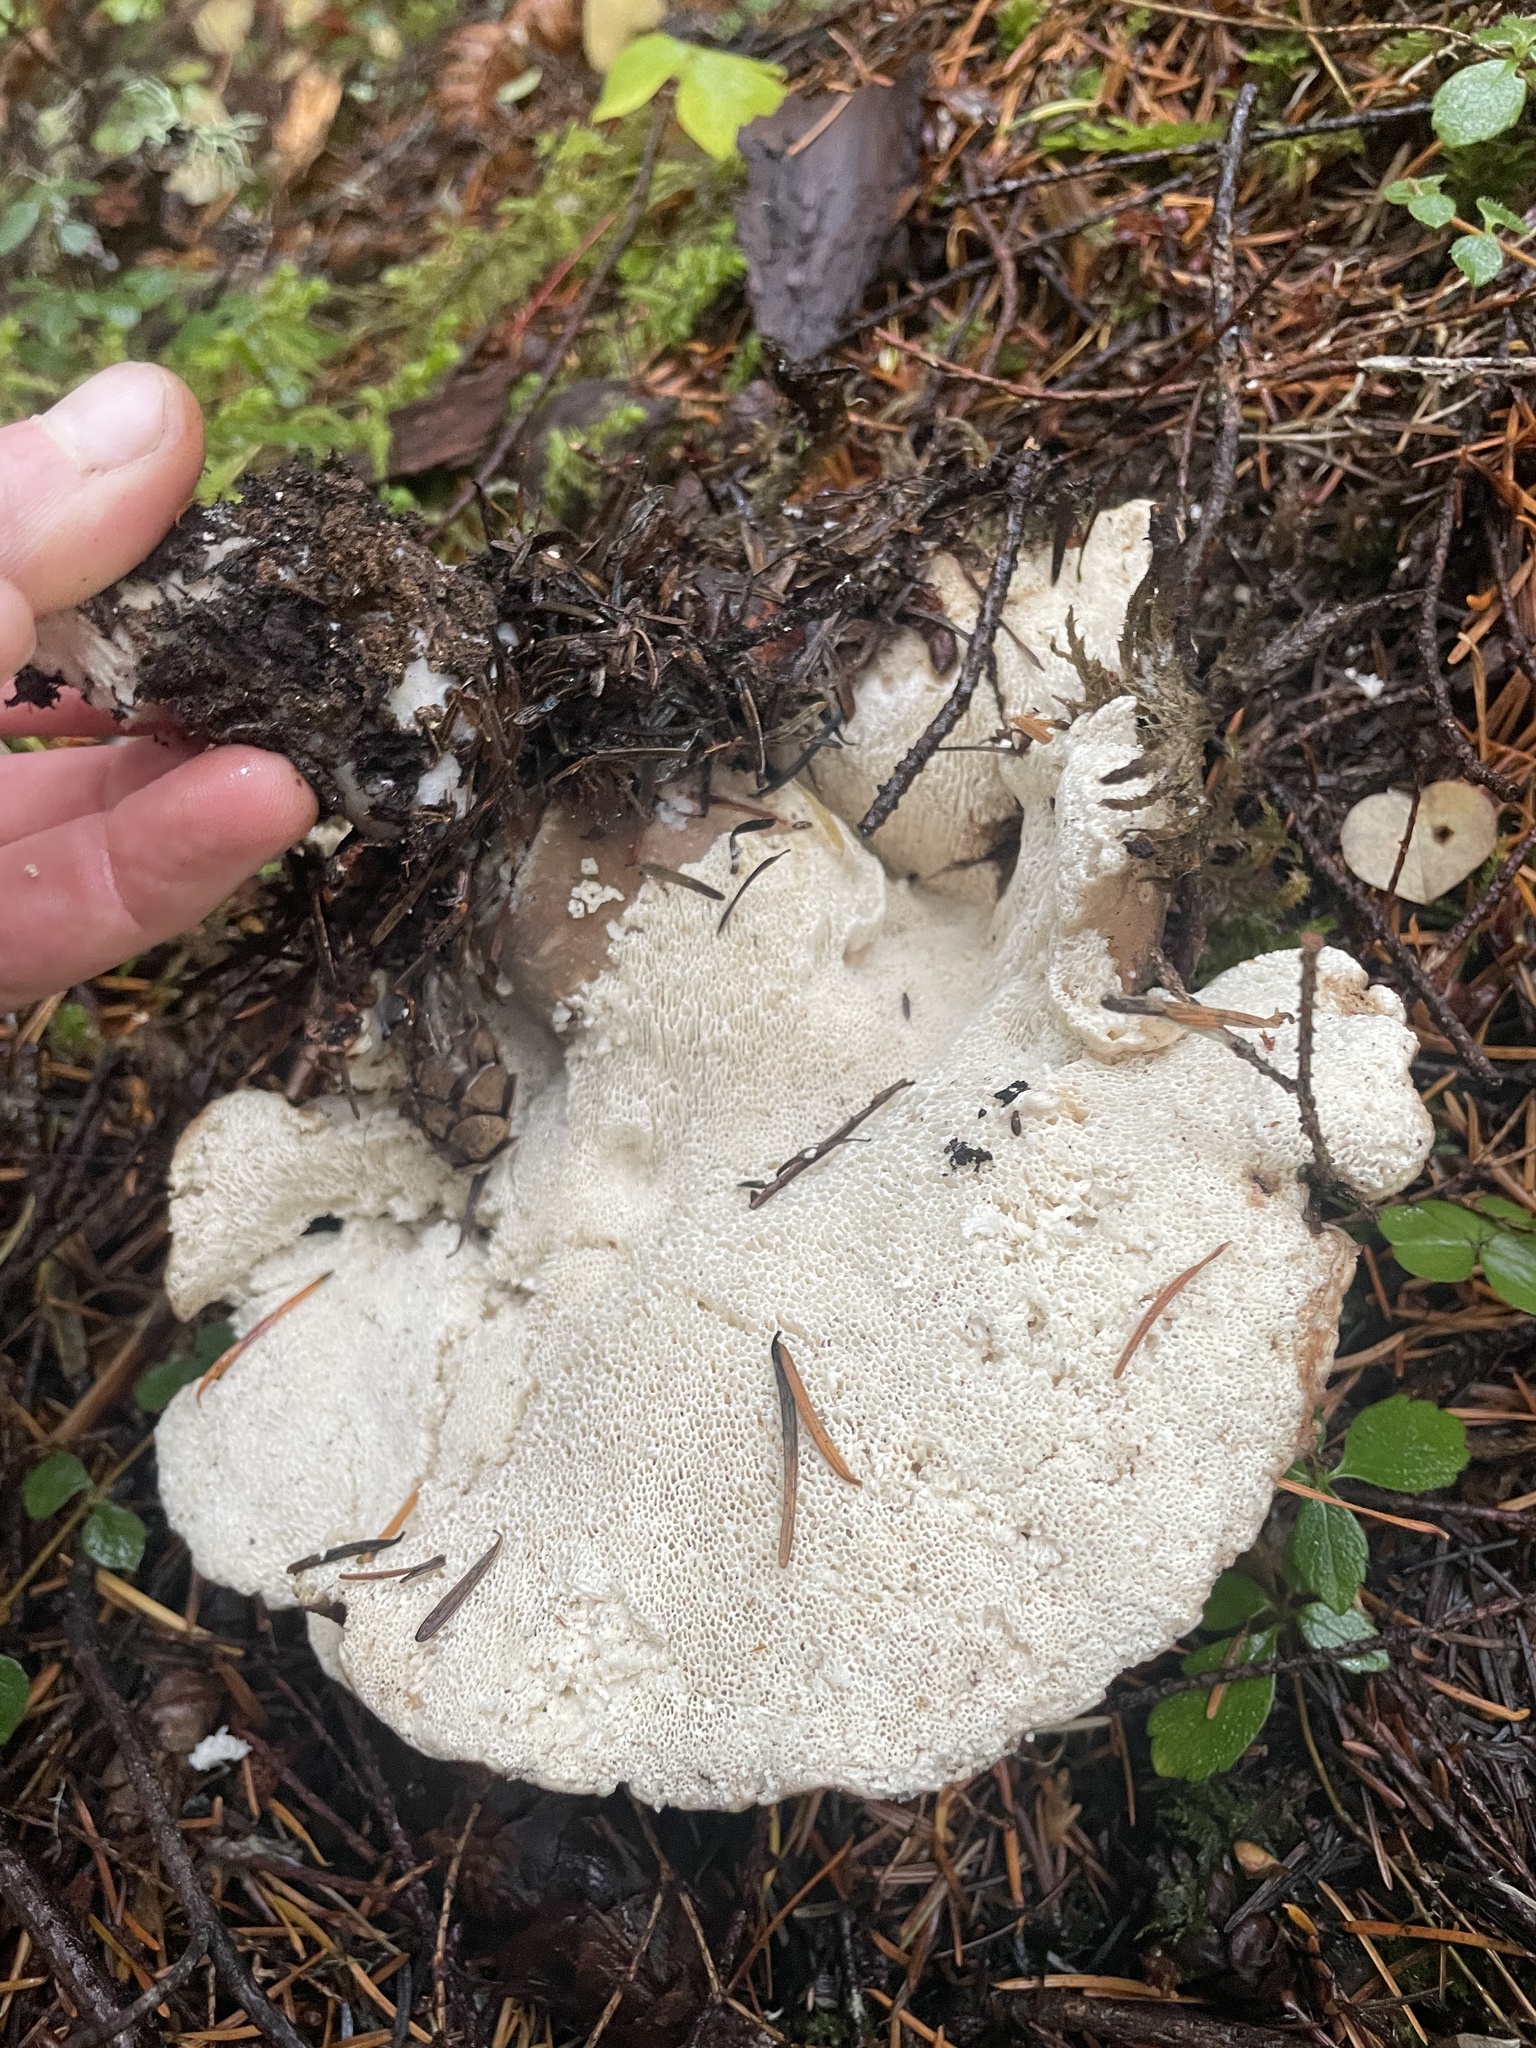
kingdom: Fungi
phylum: Basidiomycota
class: Agaricomycetes
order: Polyporales
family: Dacryobolaceae
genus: Jahnoporus
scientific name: Jahnoporus hirtus
